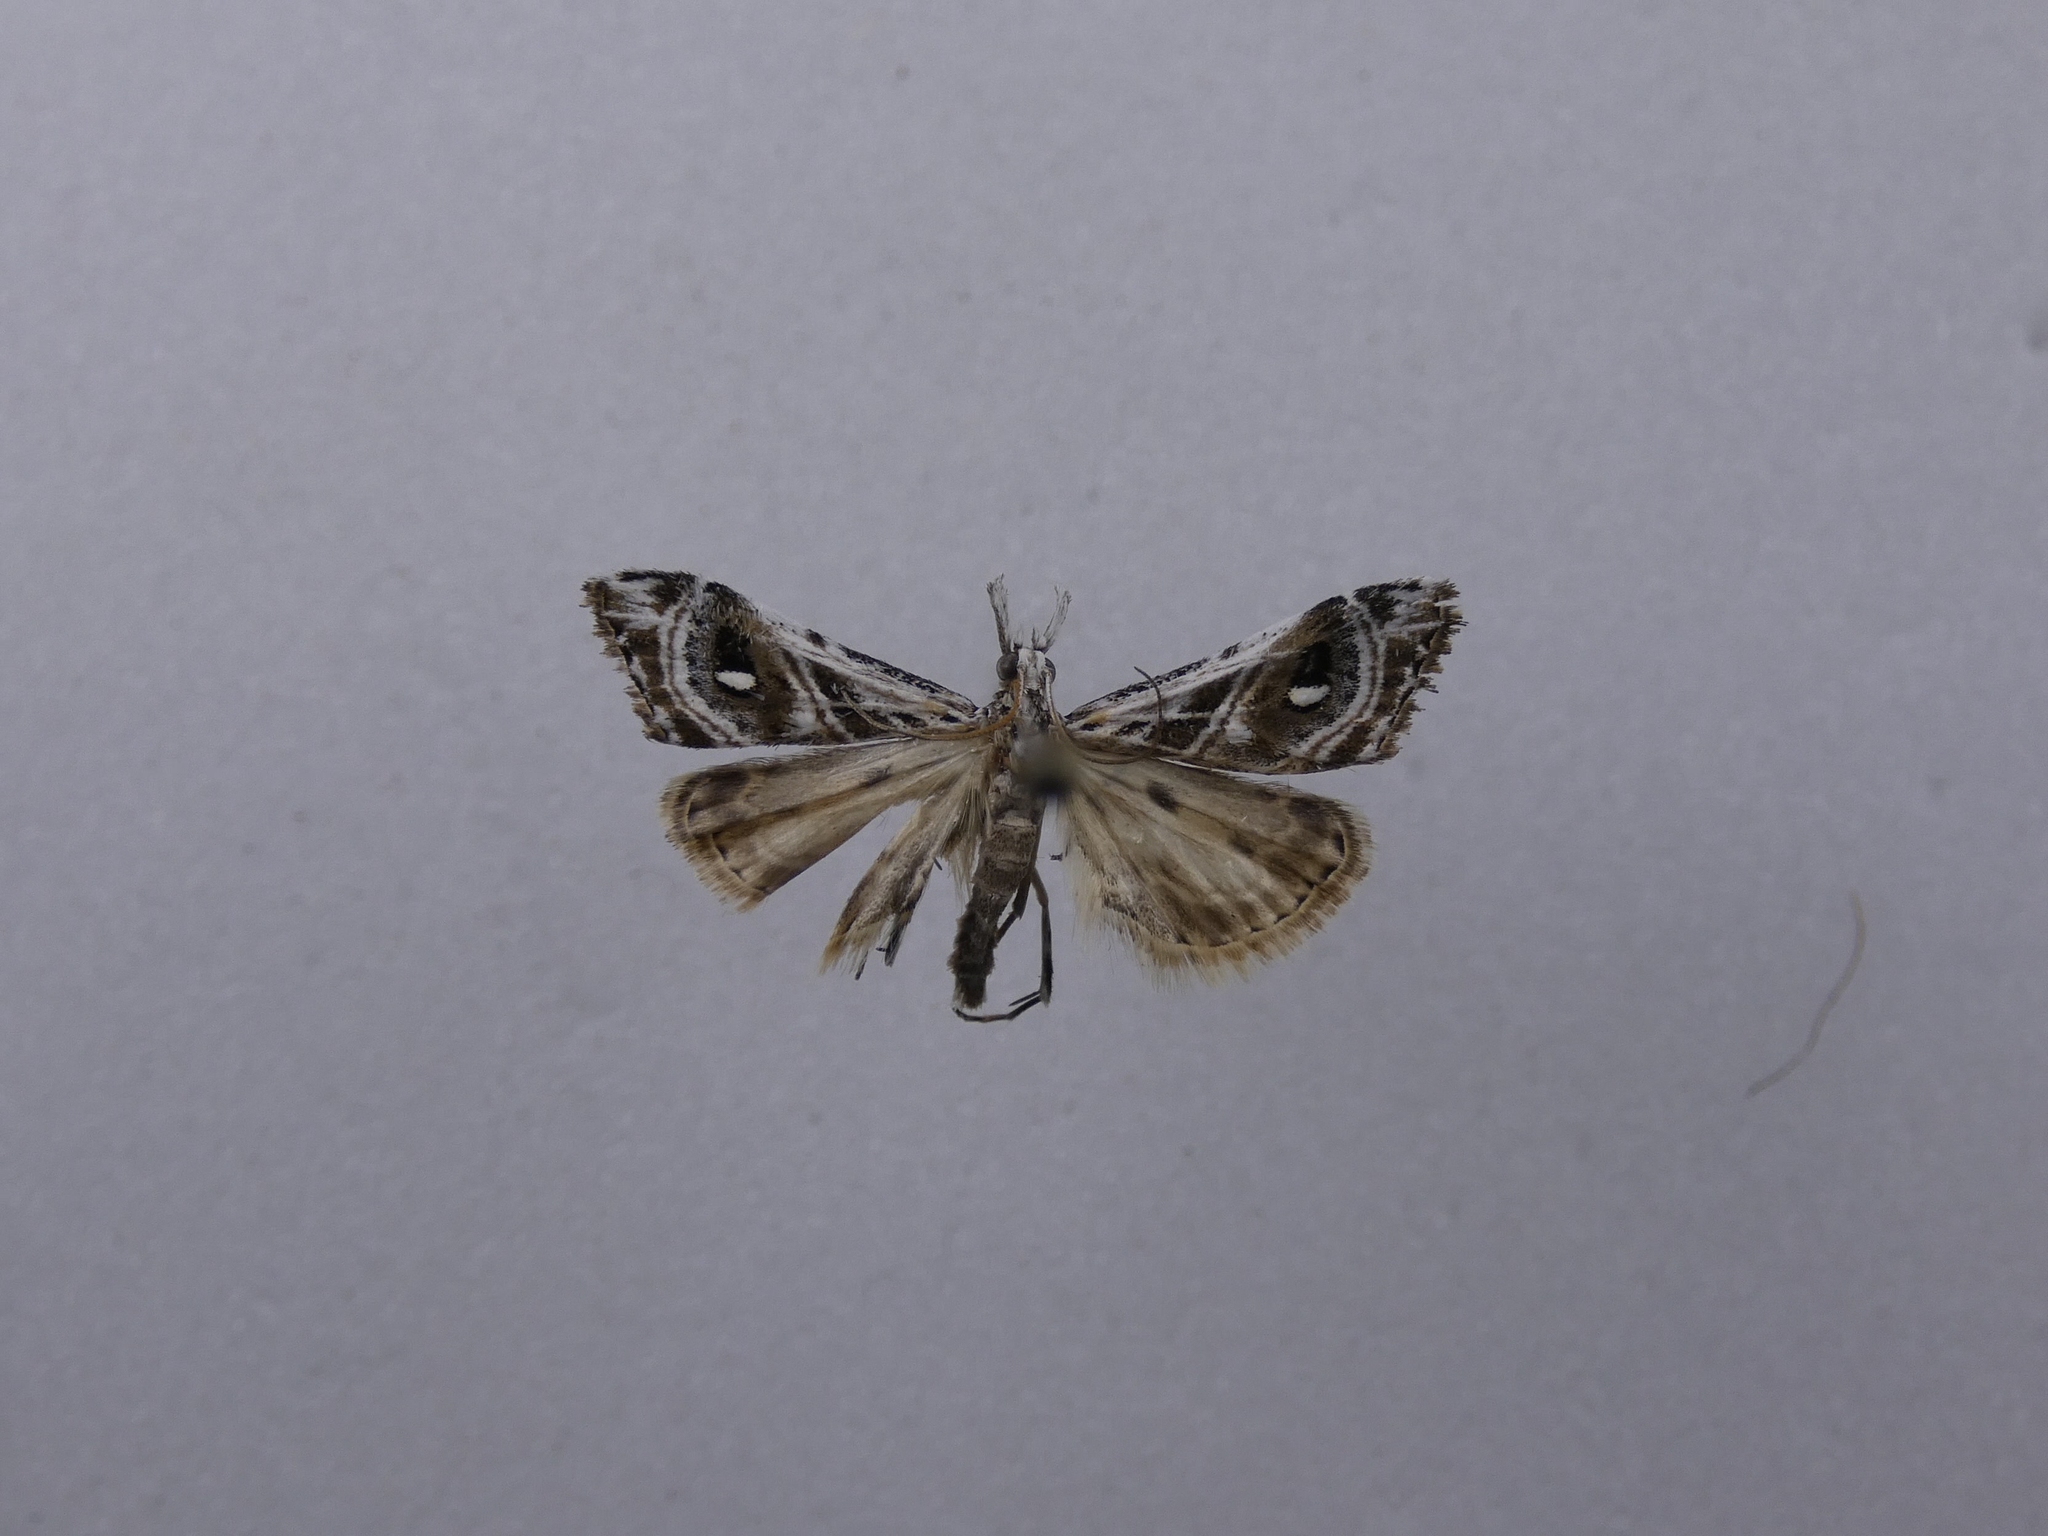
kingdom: Animalia
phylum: Arthropoda
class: Insecta
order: Lepidoptera
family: Crambidae
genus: Gadira
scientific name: Gadira acerella
